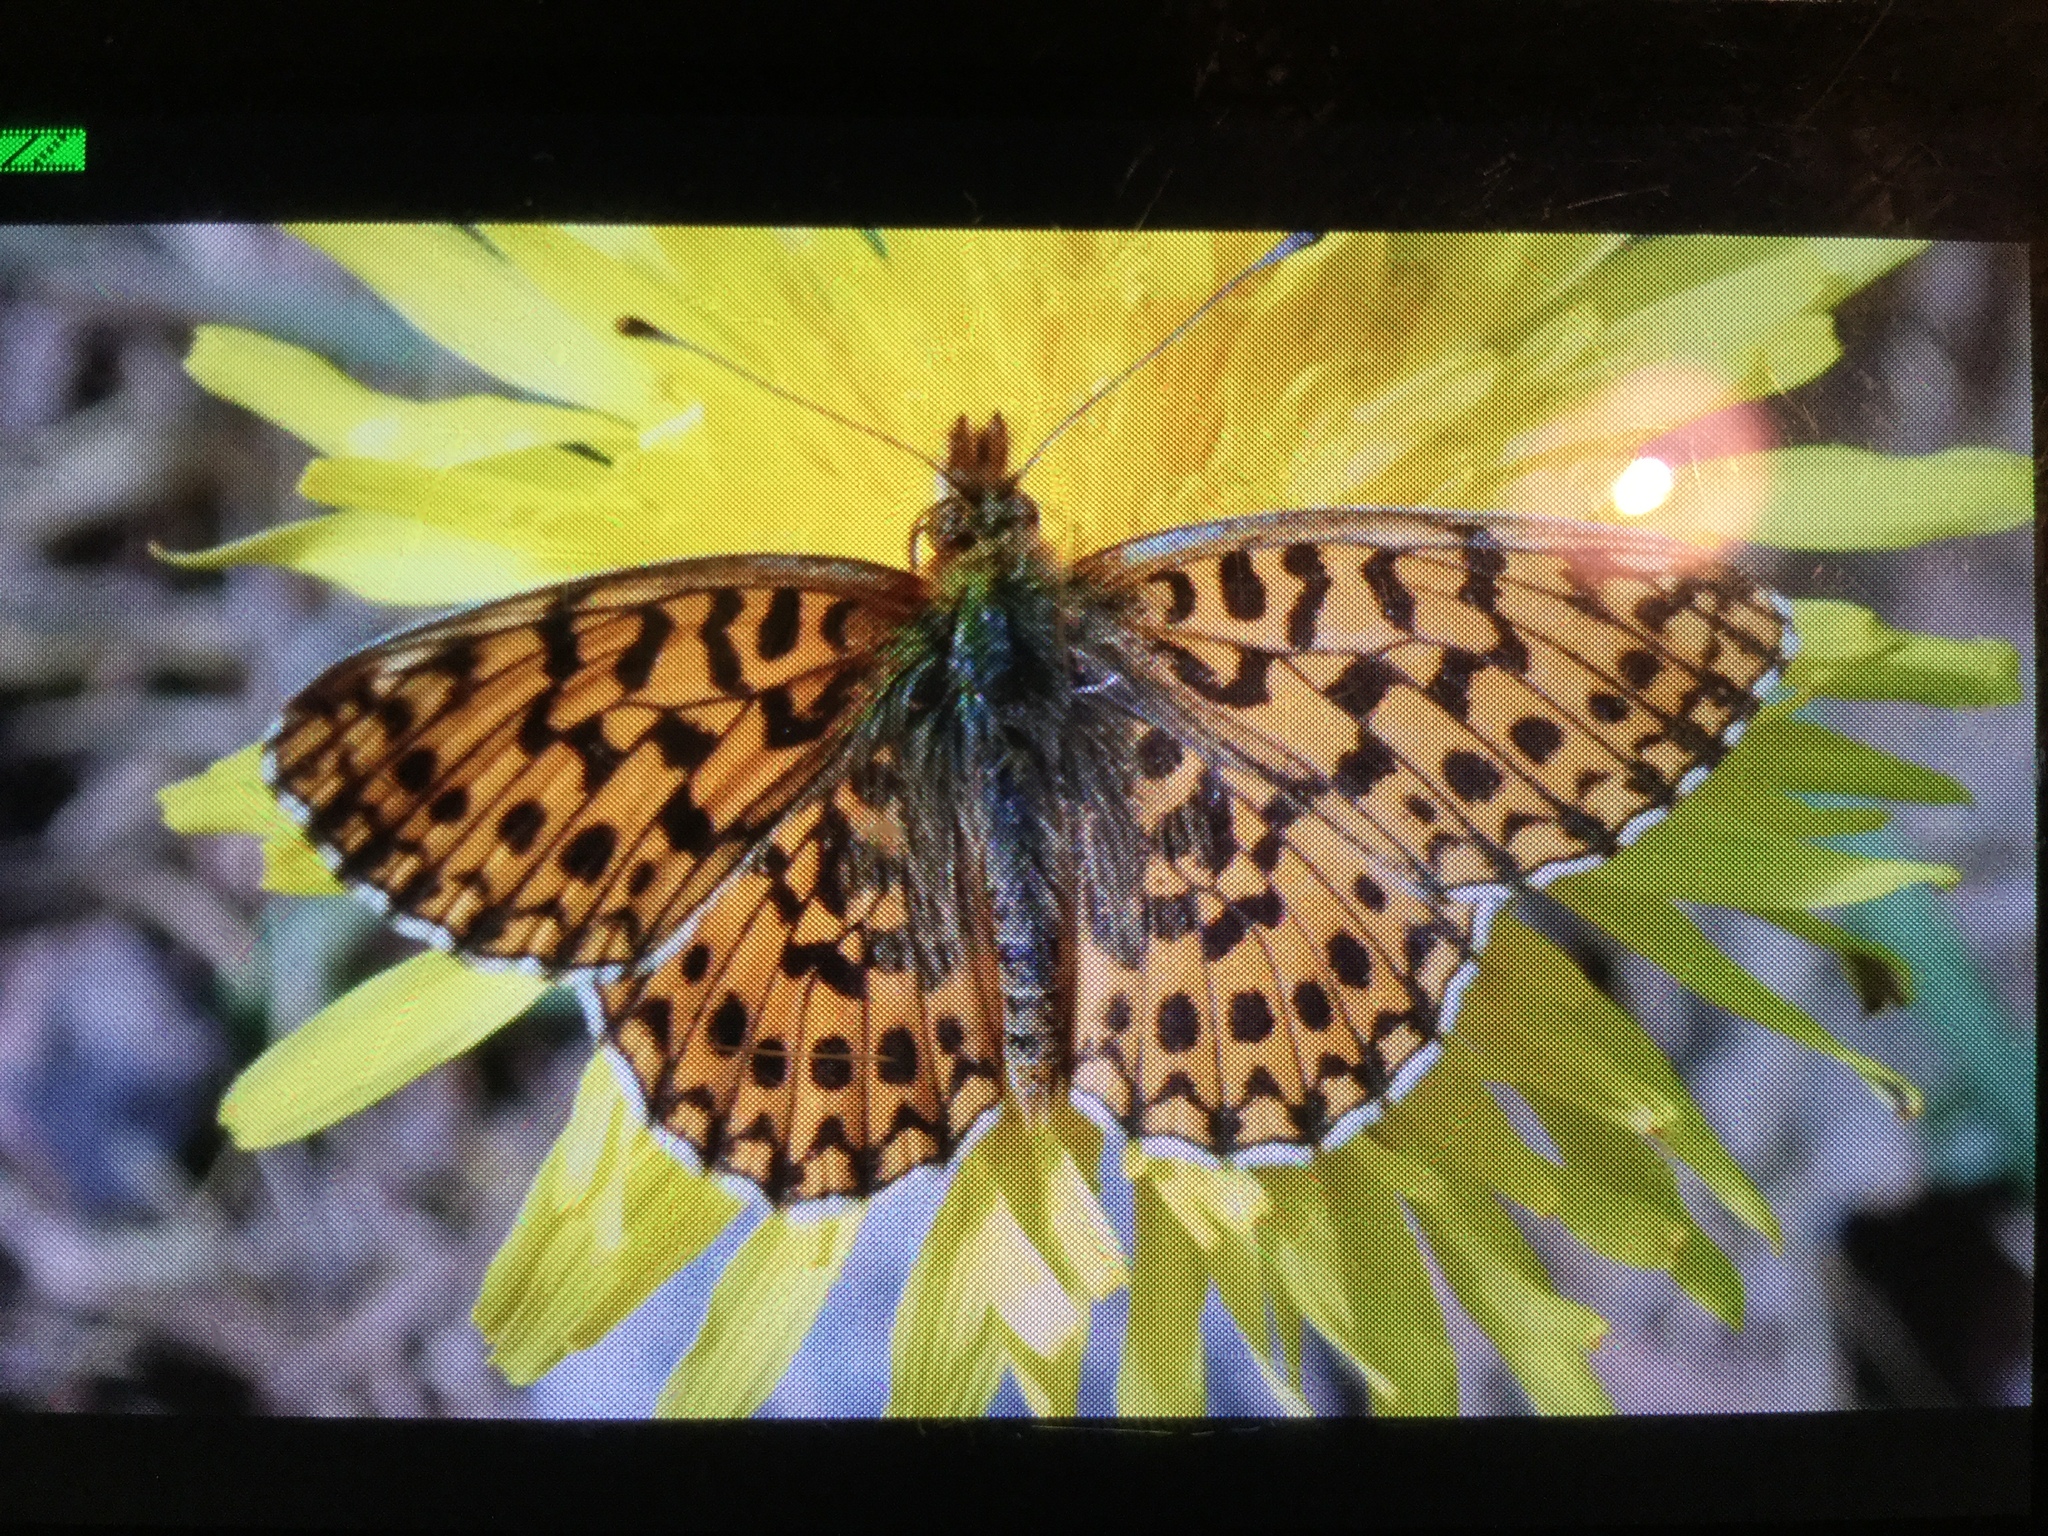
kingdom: Animalia
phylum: Arthropoda
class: Insecta
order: Lepidoptera
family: Nymphalidae
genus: Boloria
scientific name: Boloria dia
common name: Weaver's fritillary
